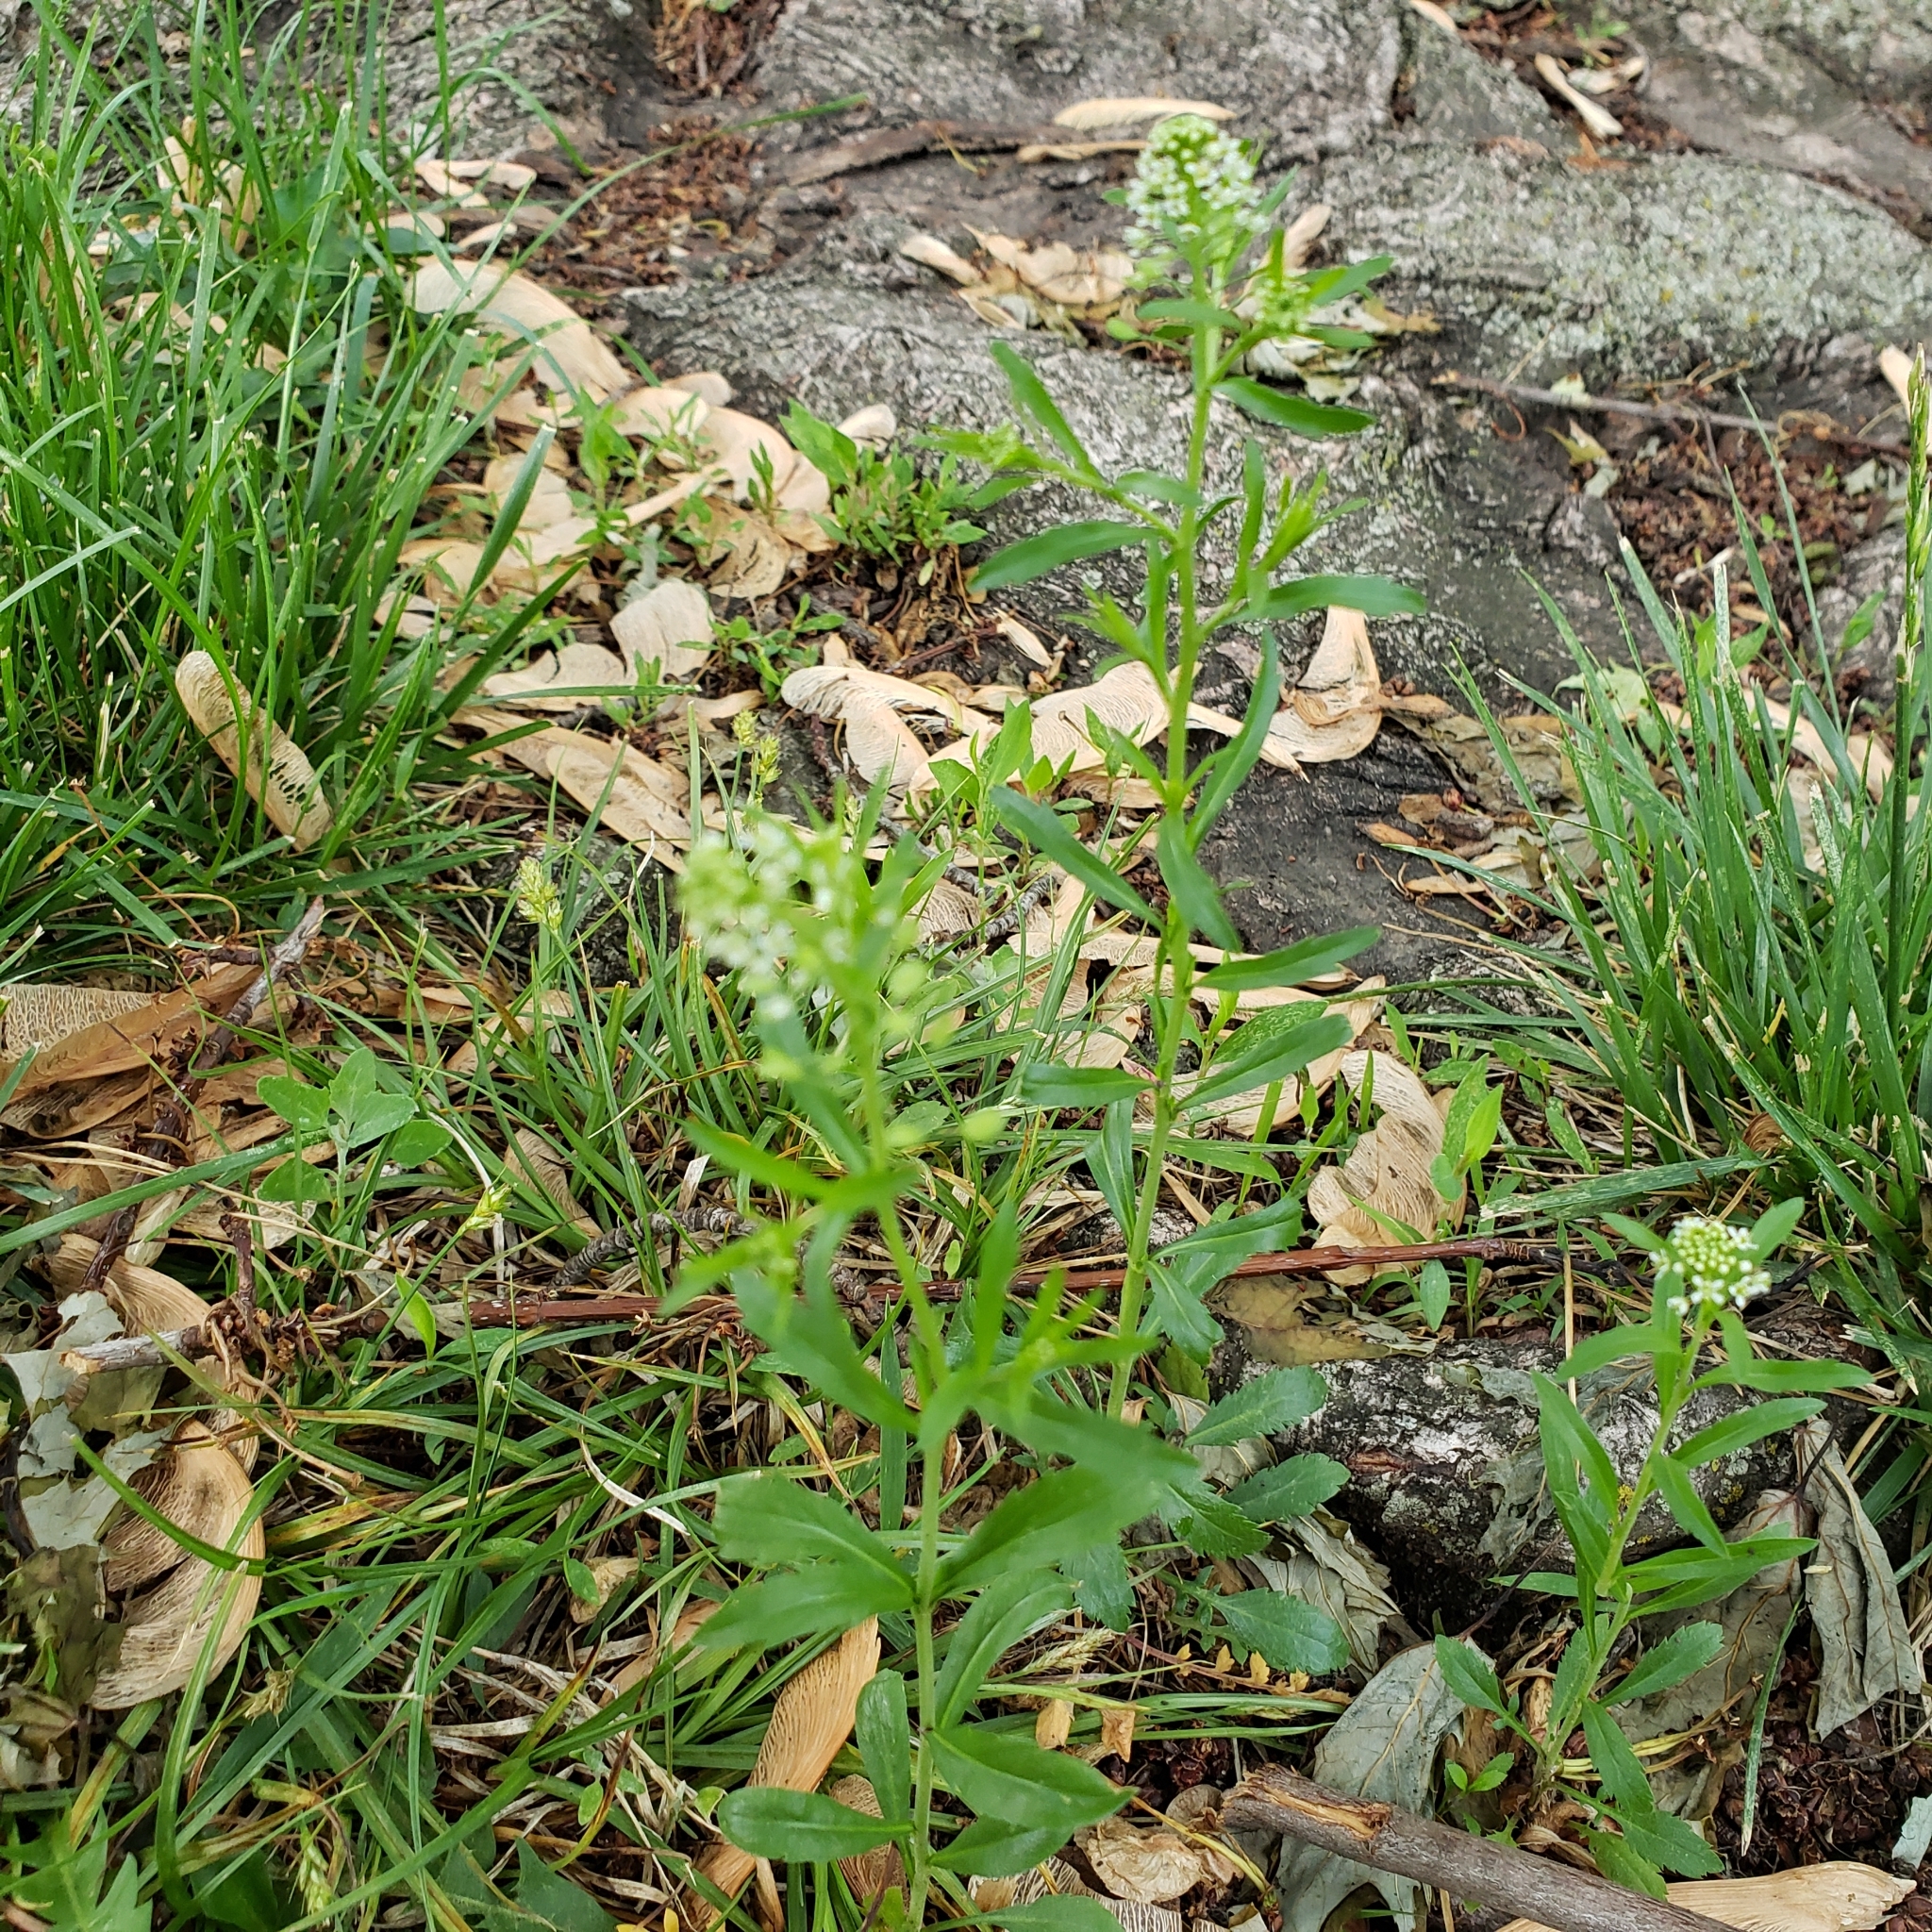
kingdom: Plantae
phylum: Tracheophyta
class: Magnoliopsida
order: Brassicales
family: Brassicaceae
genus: Lepidium
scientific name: Lepidium virginicum
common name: Least pepperwort
